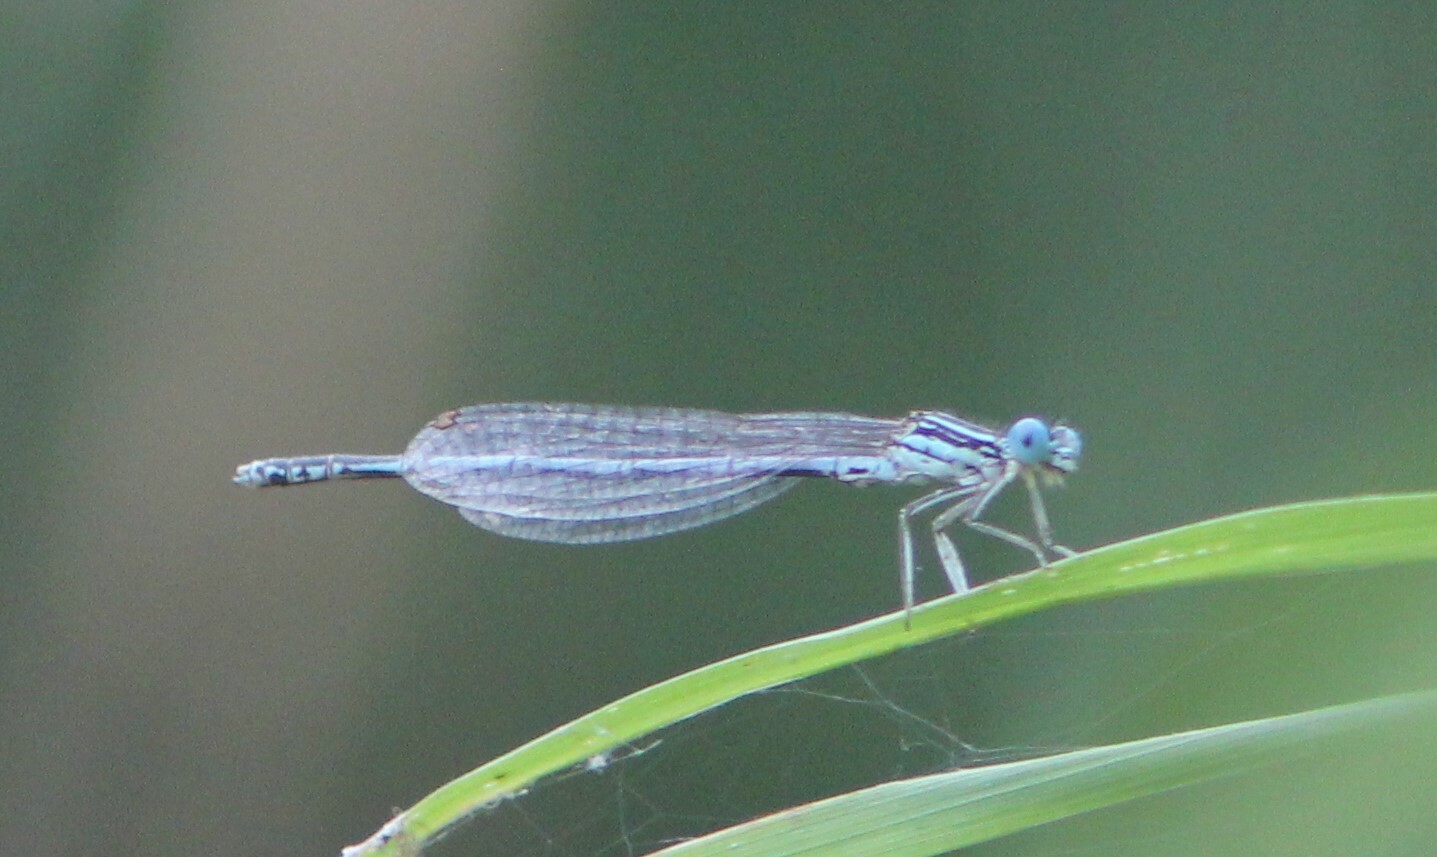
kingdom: Animalia
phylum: Arthropoda
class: Insecta
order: Odonata
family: Platycnemididae
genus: Platycnemis
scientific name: Platycnemis pennipes
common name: White-legged damselfly
